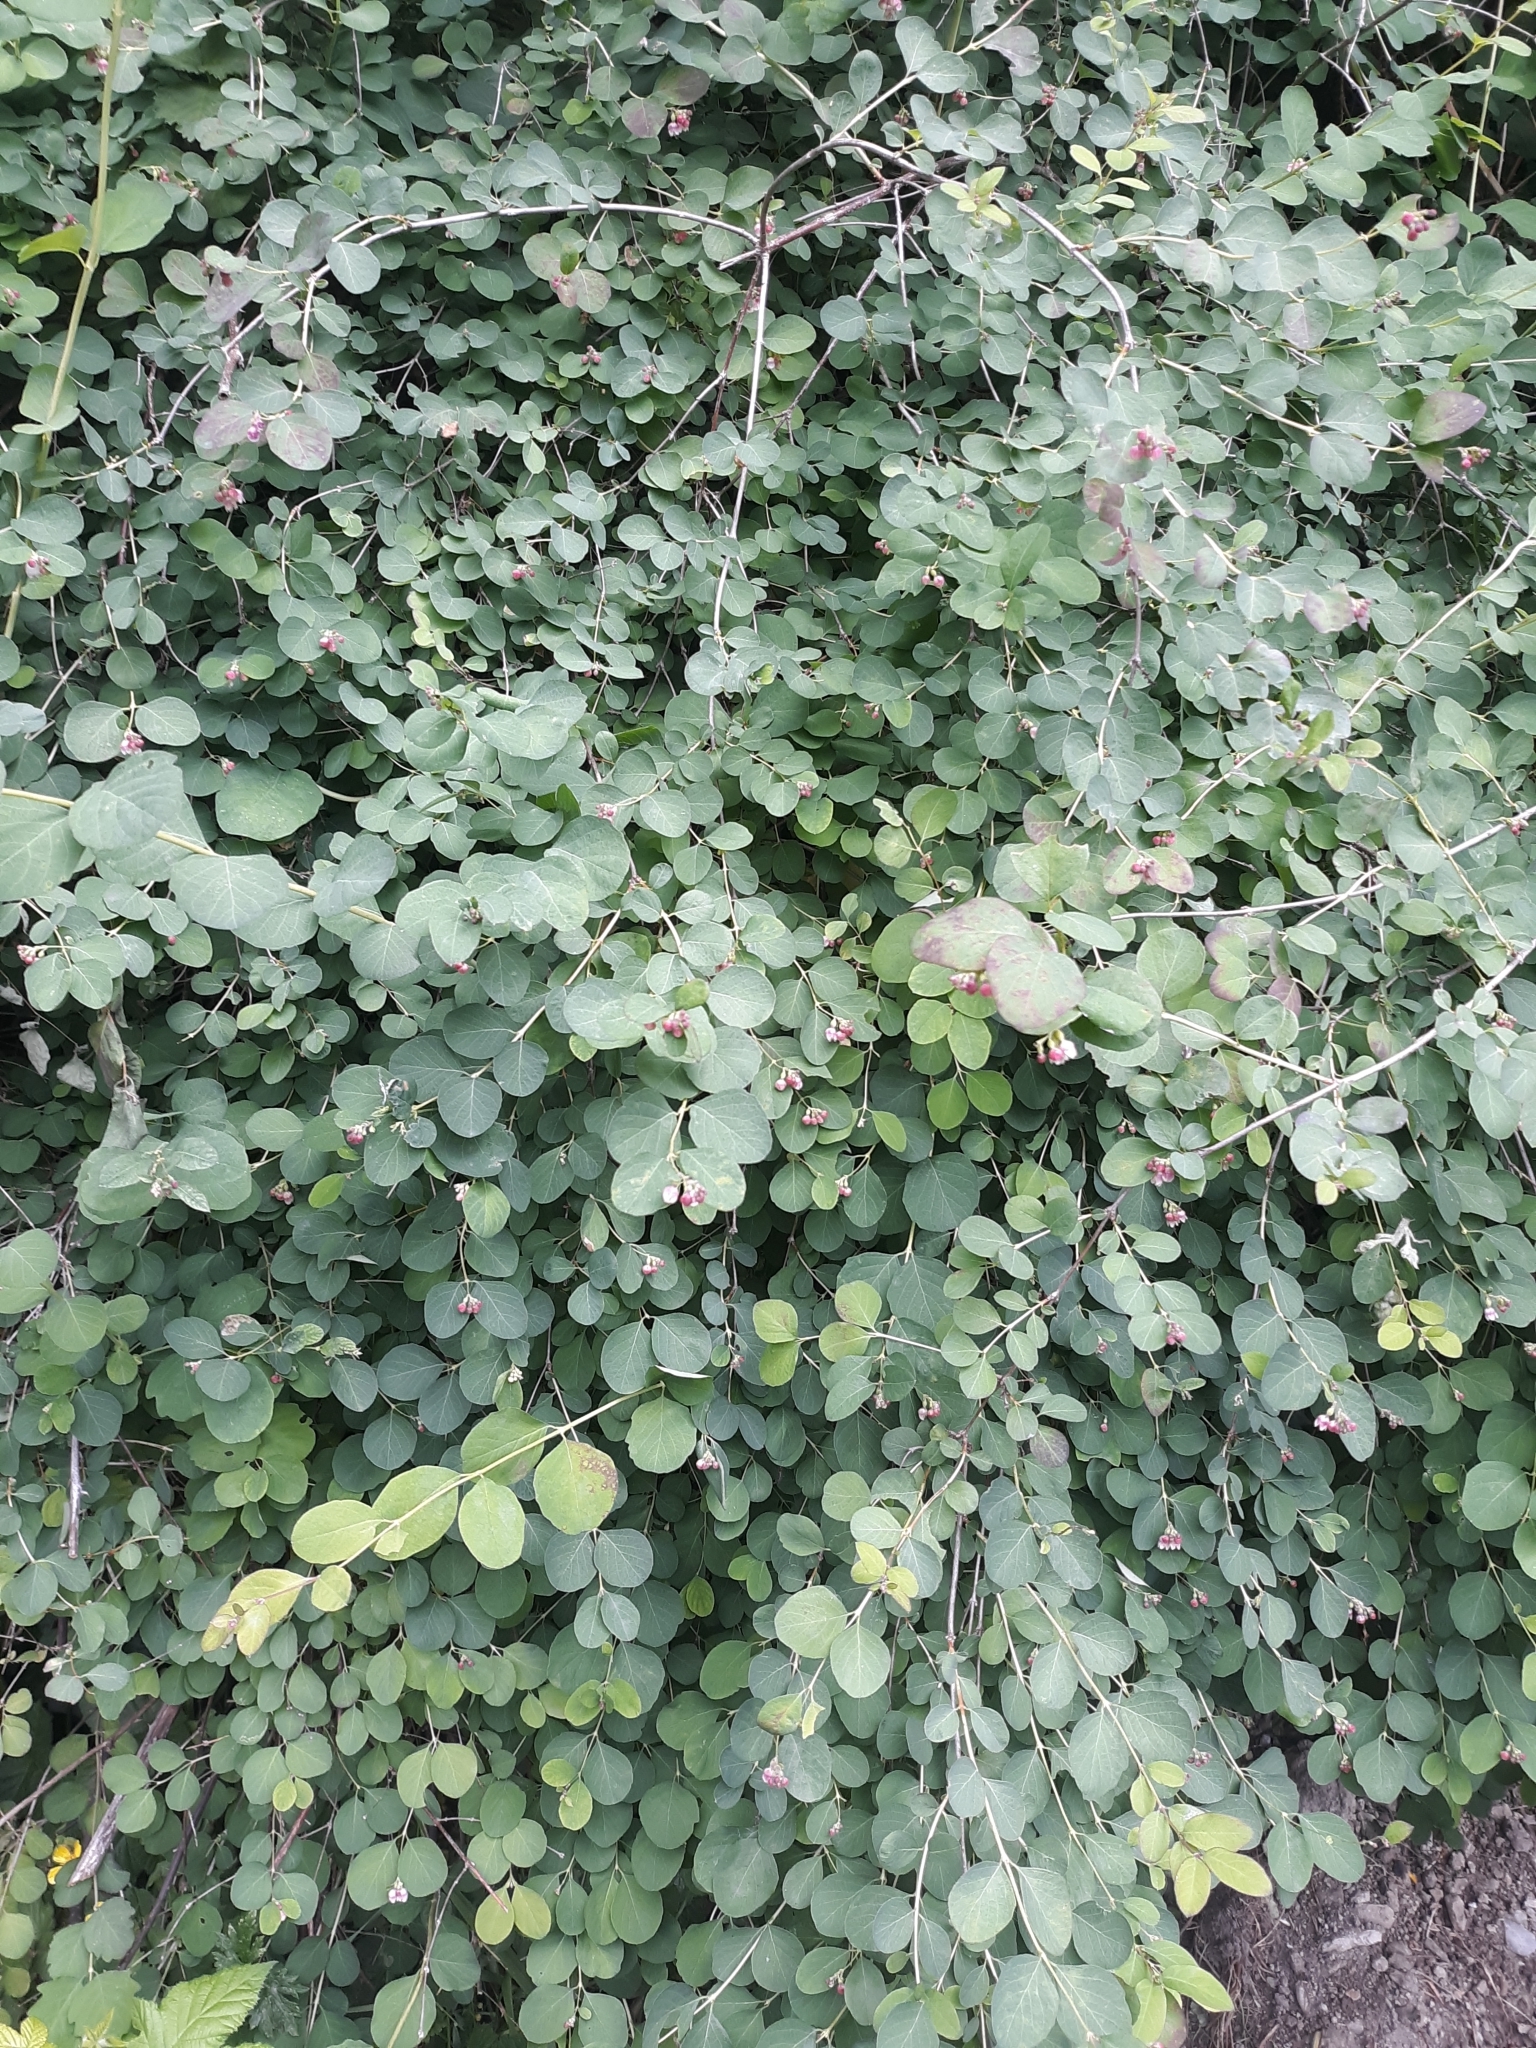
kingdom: Plantae
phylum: Tracheophyta
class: Magnoliopsida
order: Dipsacales
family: Caprifoliaceae
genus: Symphoricarpos
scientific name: Symphoricarpos albus
